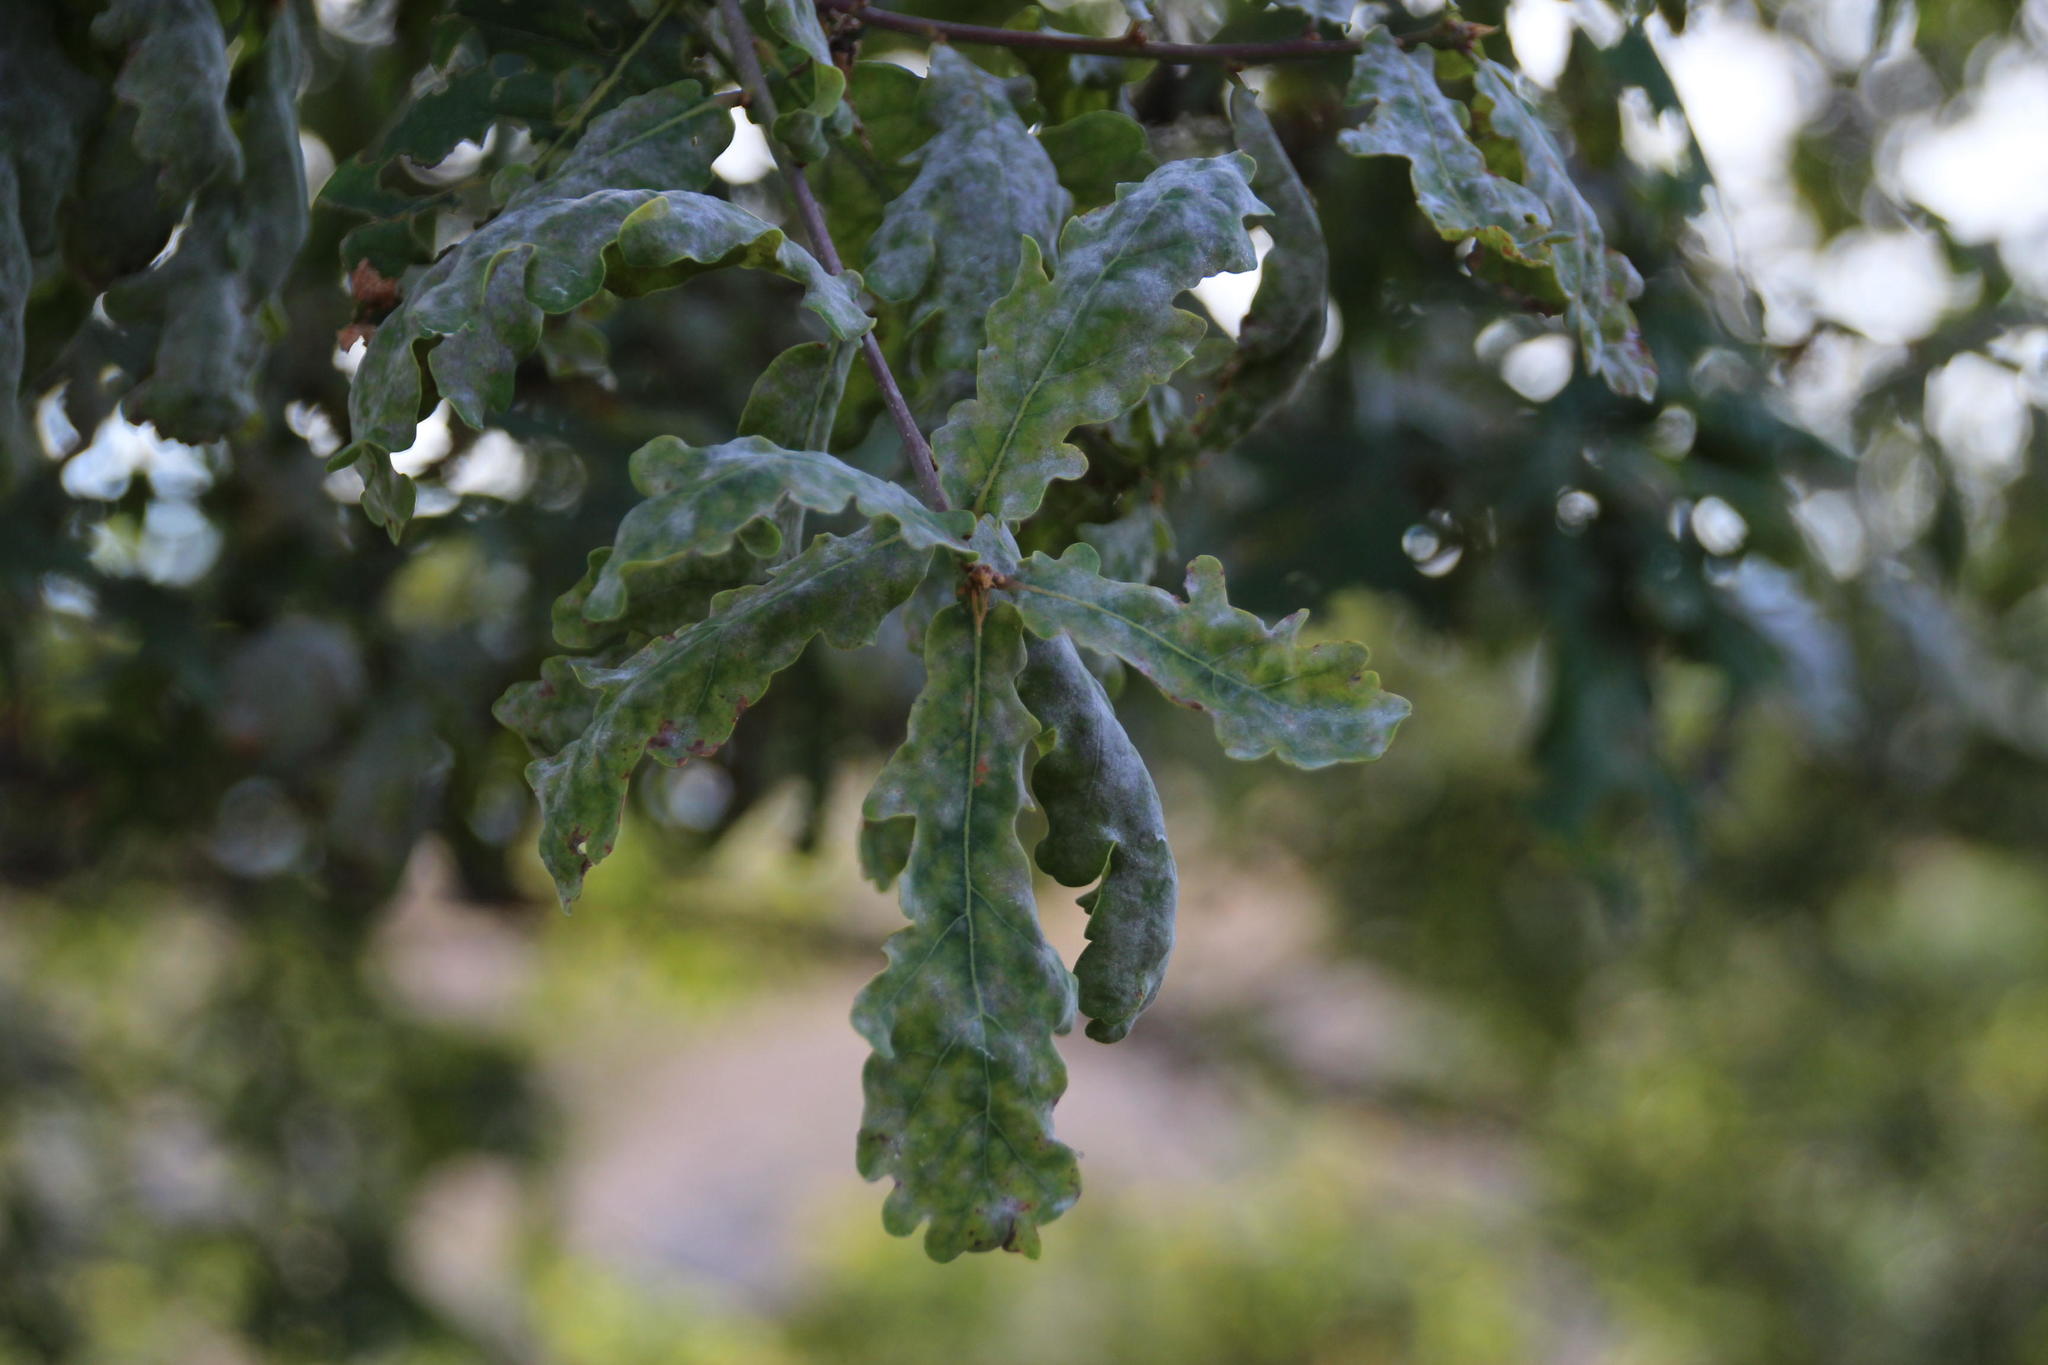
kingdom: Fungi
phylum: Ascomycota
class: Leotiomycetes
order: Helotiales
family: Erysiphaceae
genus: Erysiphe
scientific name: Erysiphe alphitoides
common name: Oak mildew
